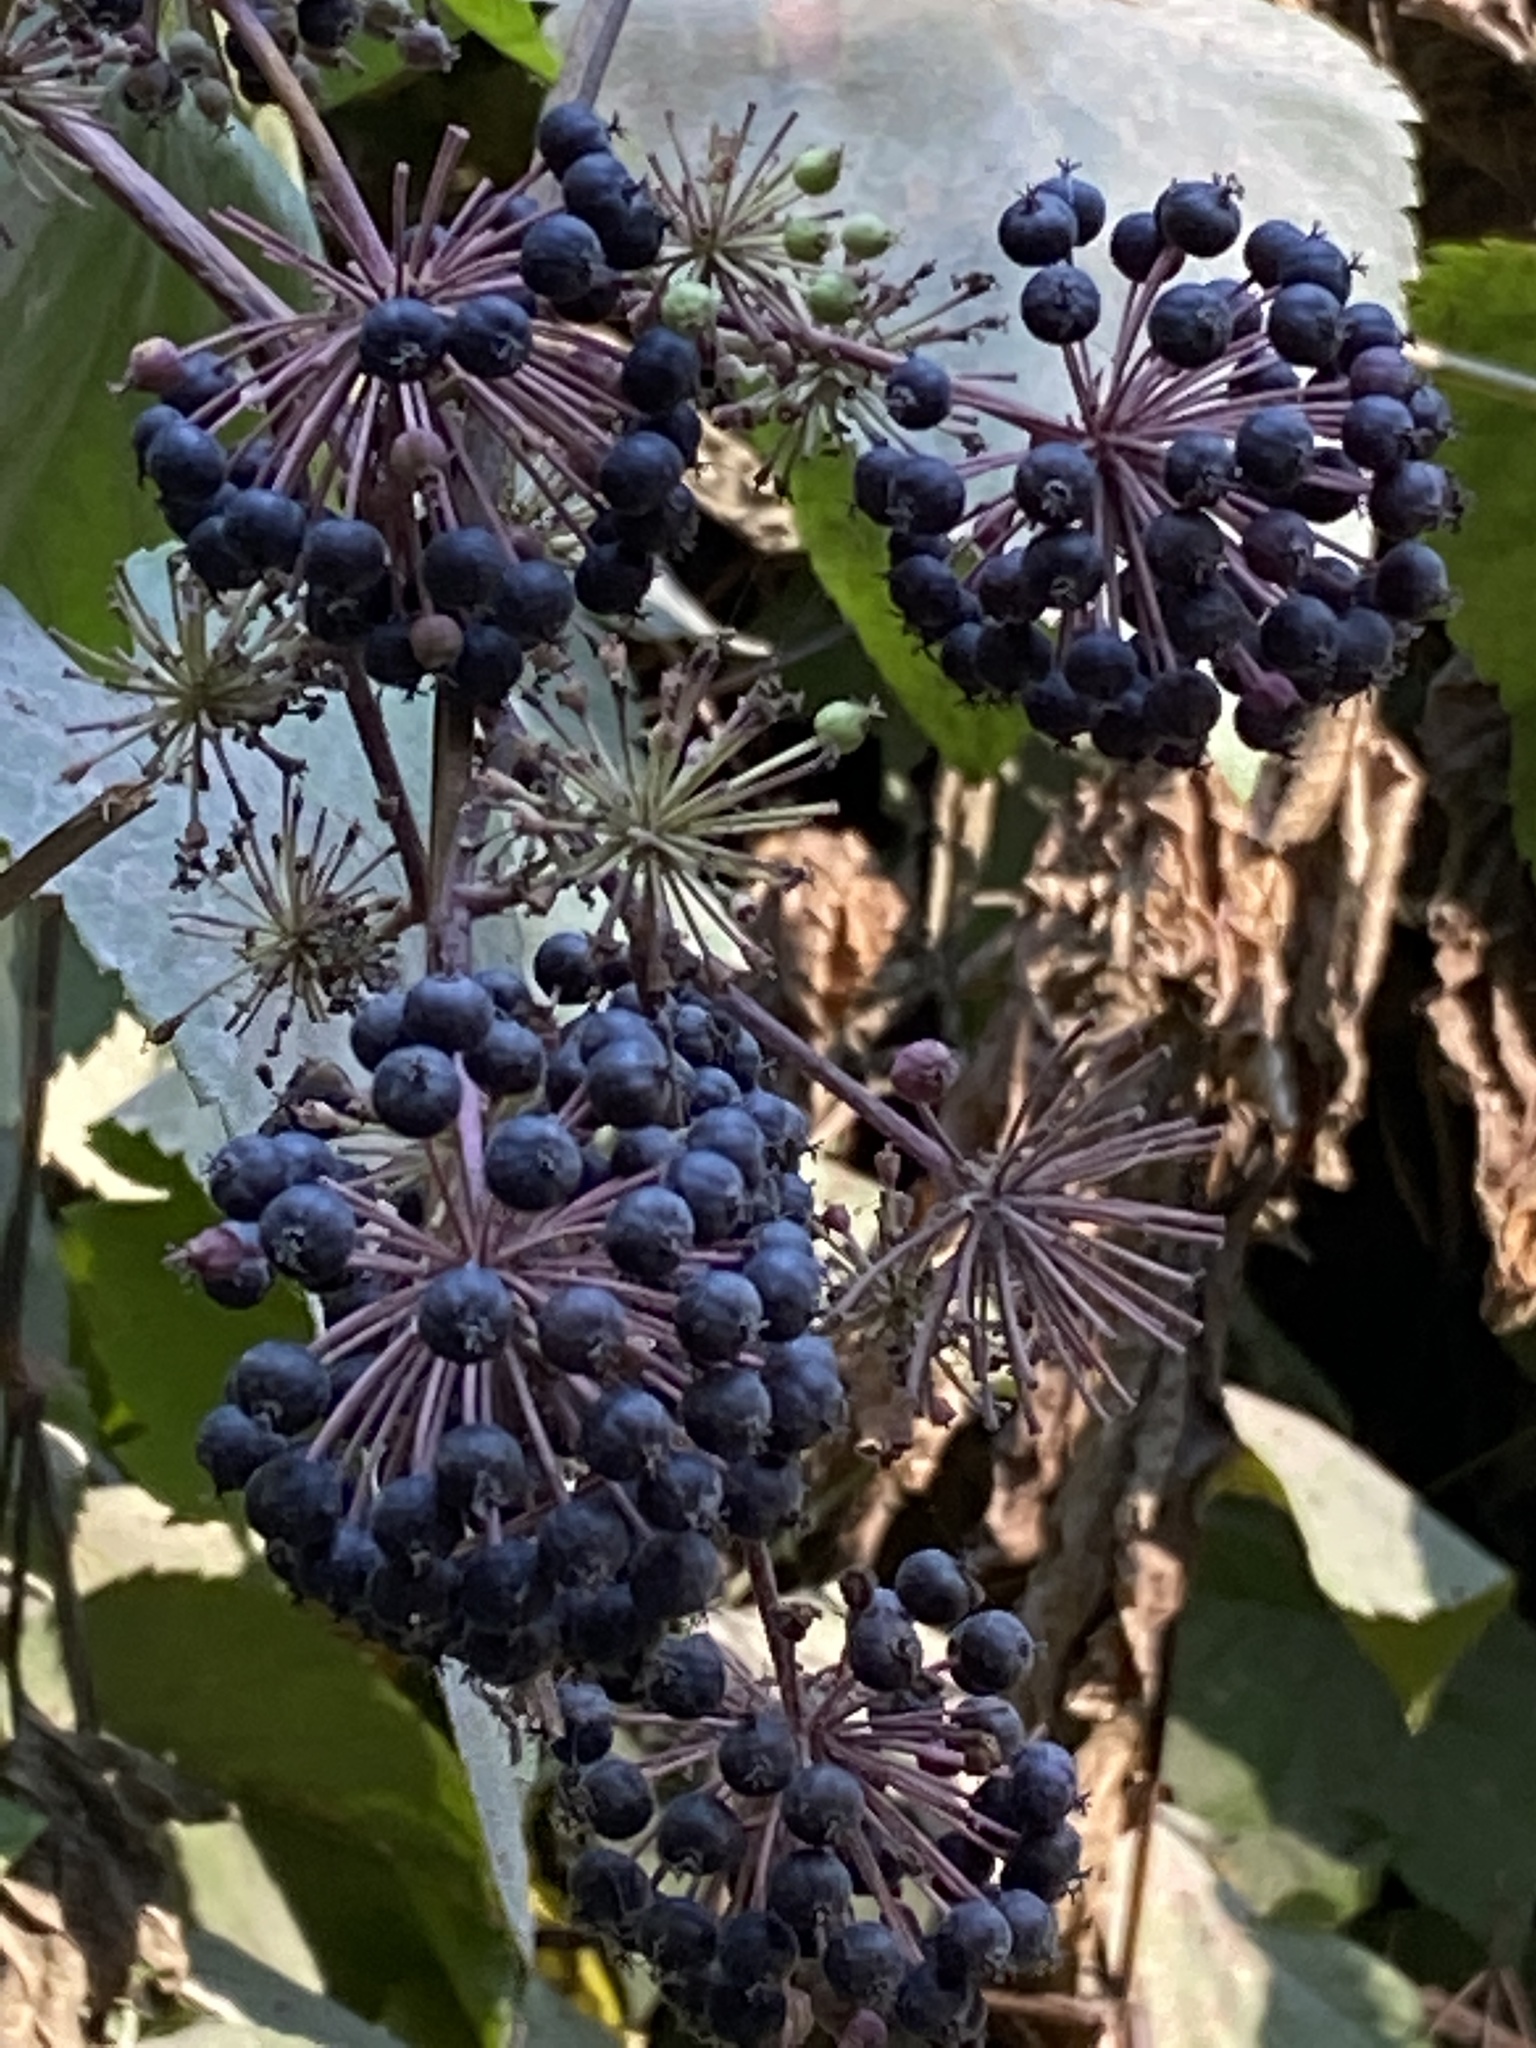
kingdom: Plantae
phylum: Tracheophyta
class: Magnoliopsida
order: Apiales
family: Araliaceae
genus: Aralia
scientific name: Aralia californica
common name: California-ginseng
